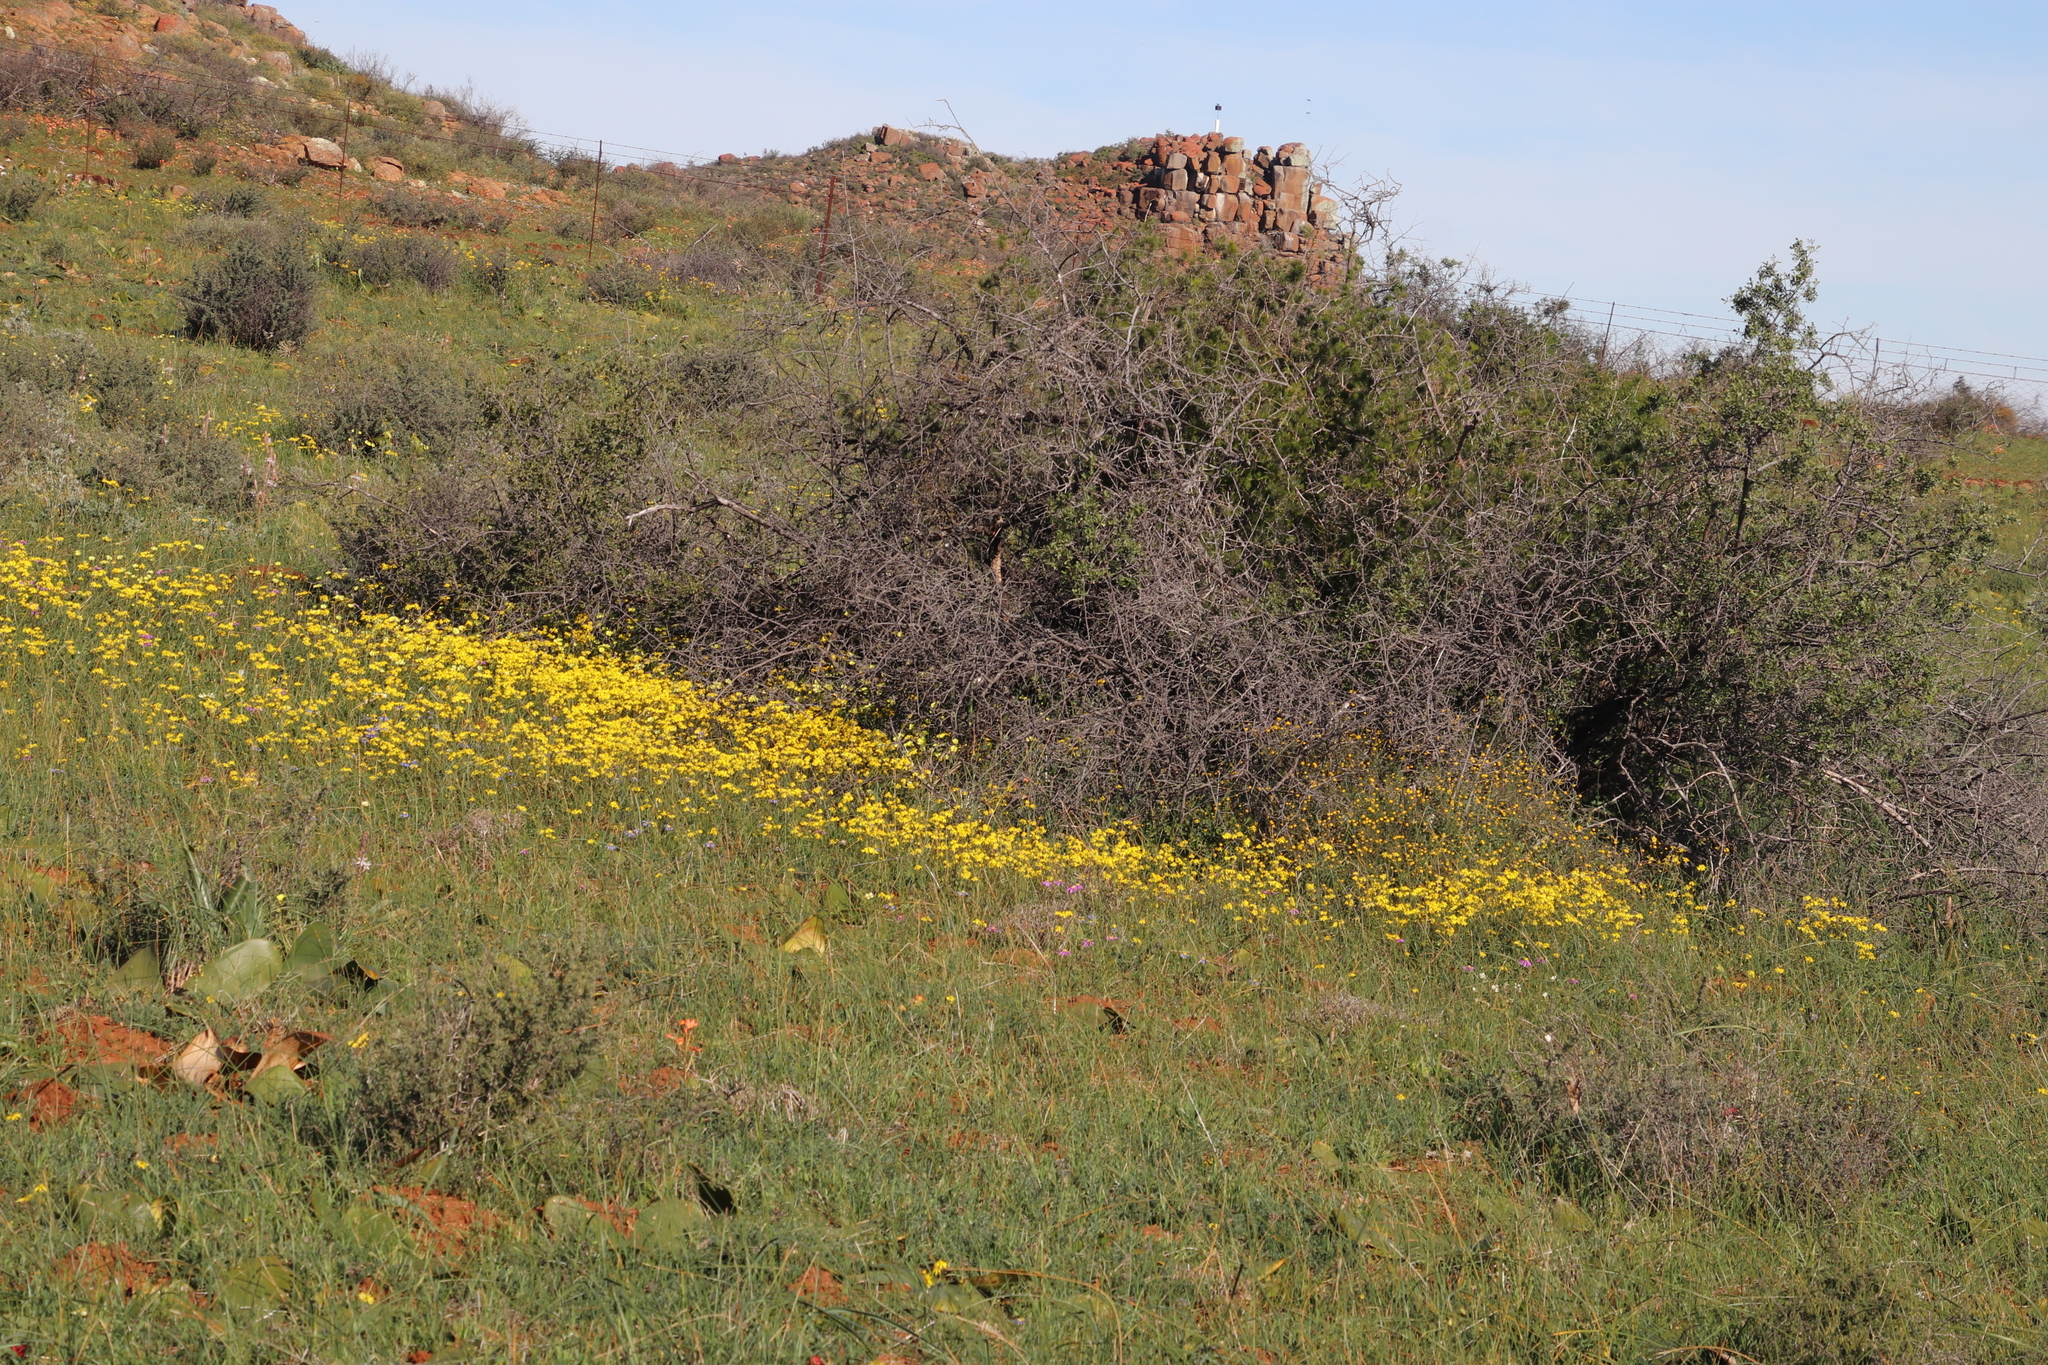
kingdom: Plantae
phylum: Tracheophyta
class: Magnoliopsida
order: Asterales
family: Asteraceae
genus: Senecio
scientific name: Senecio abruptus
